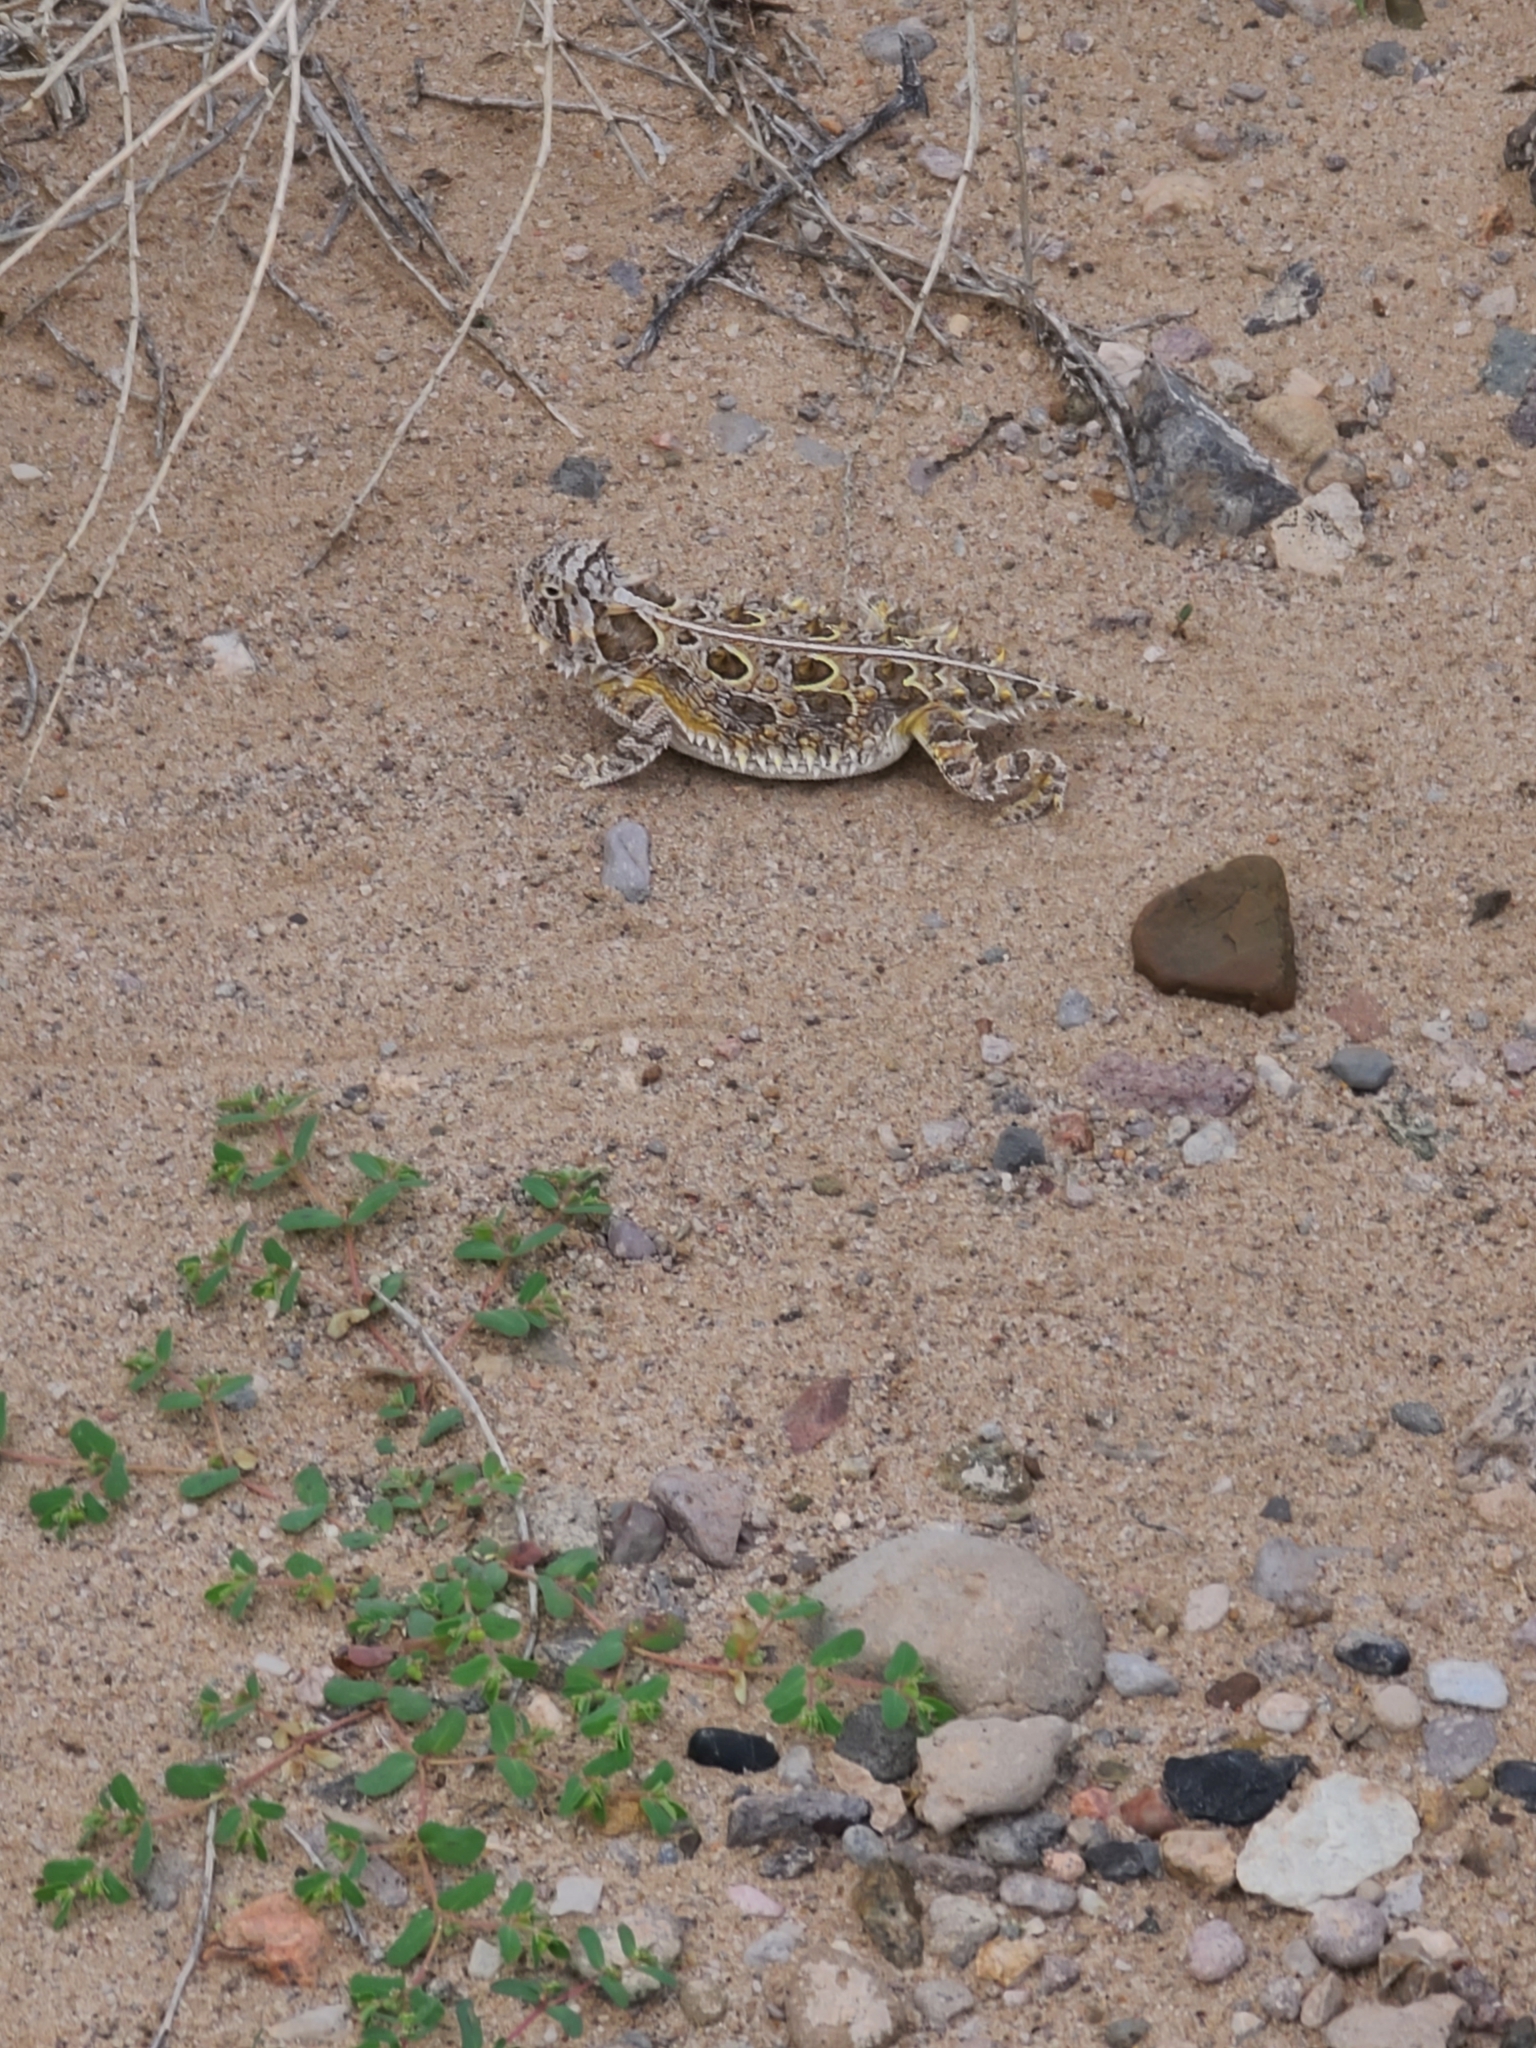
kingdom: Animalia
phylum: Chordata
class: Squamata
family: Phrynosomatidae
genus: Phrynosoma
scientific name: Phrynosoma cornutum
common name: Texas horned lizard
